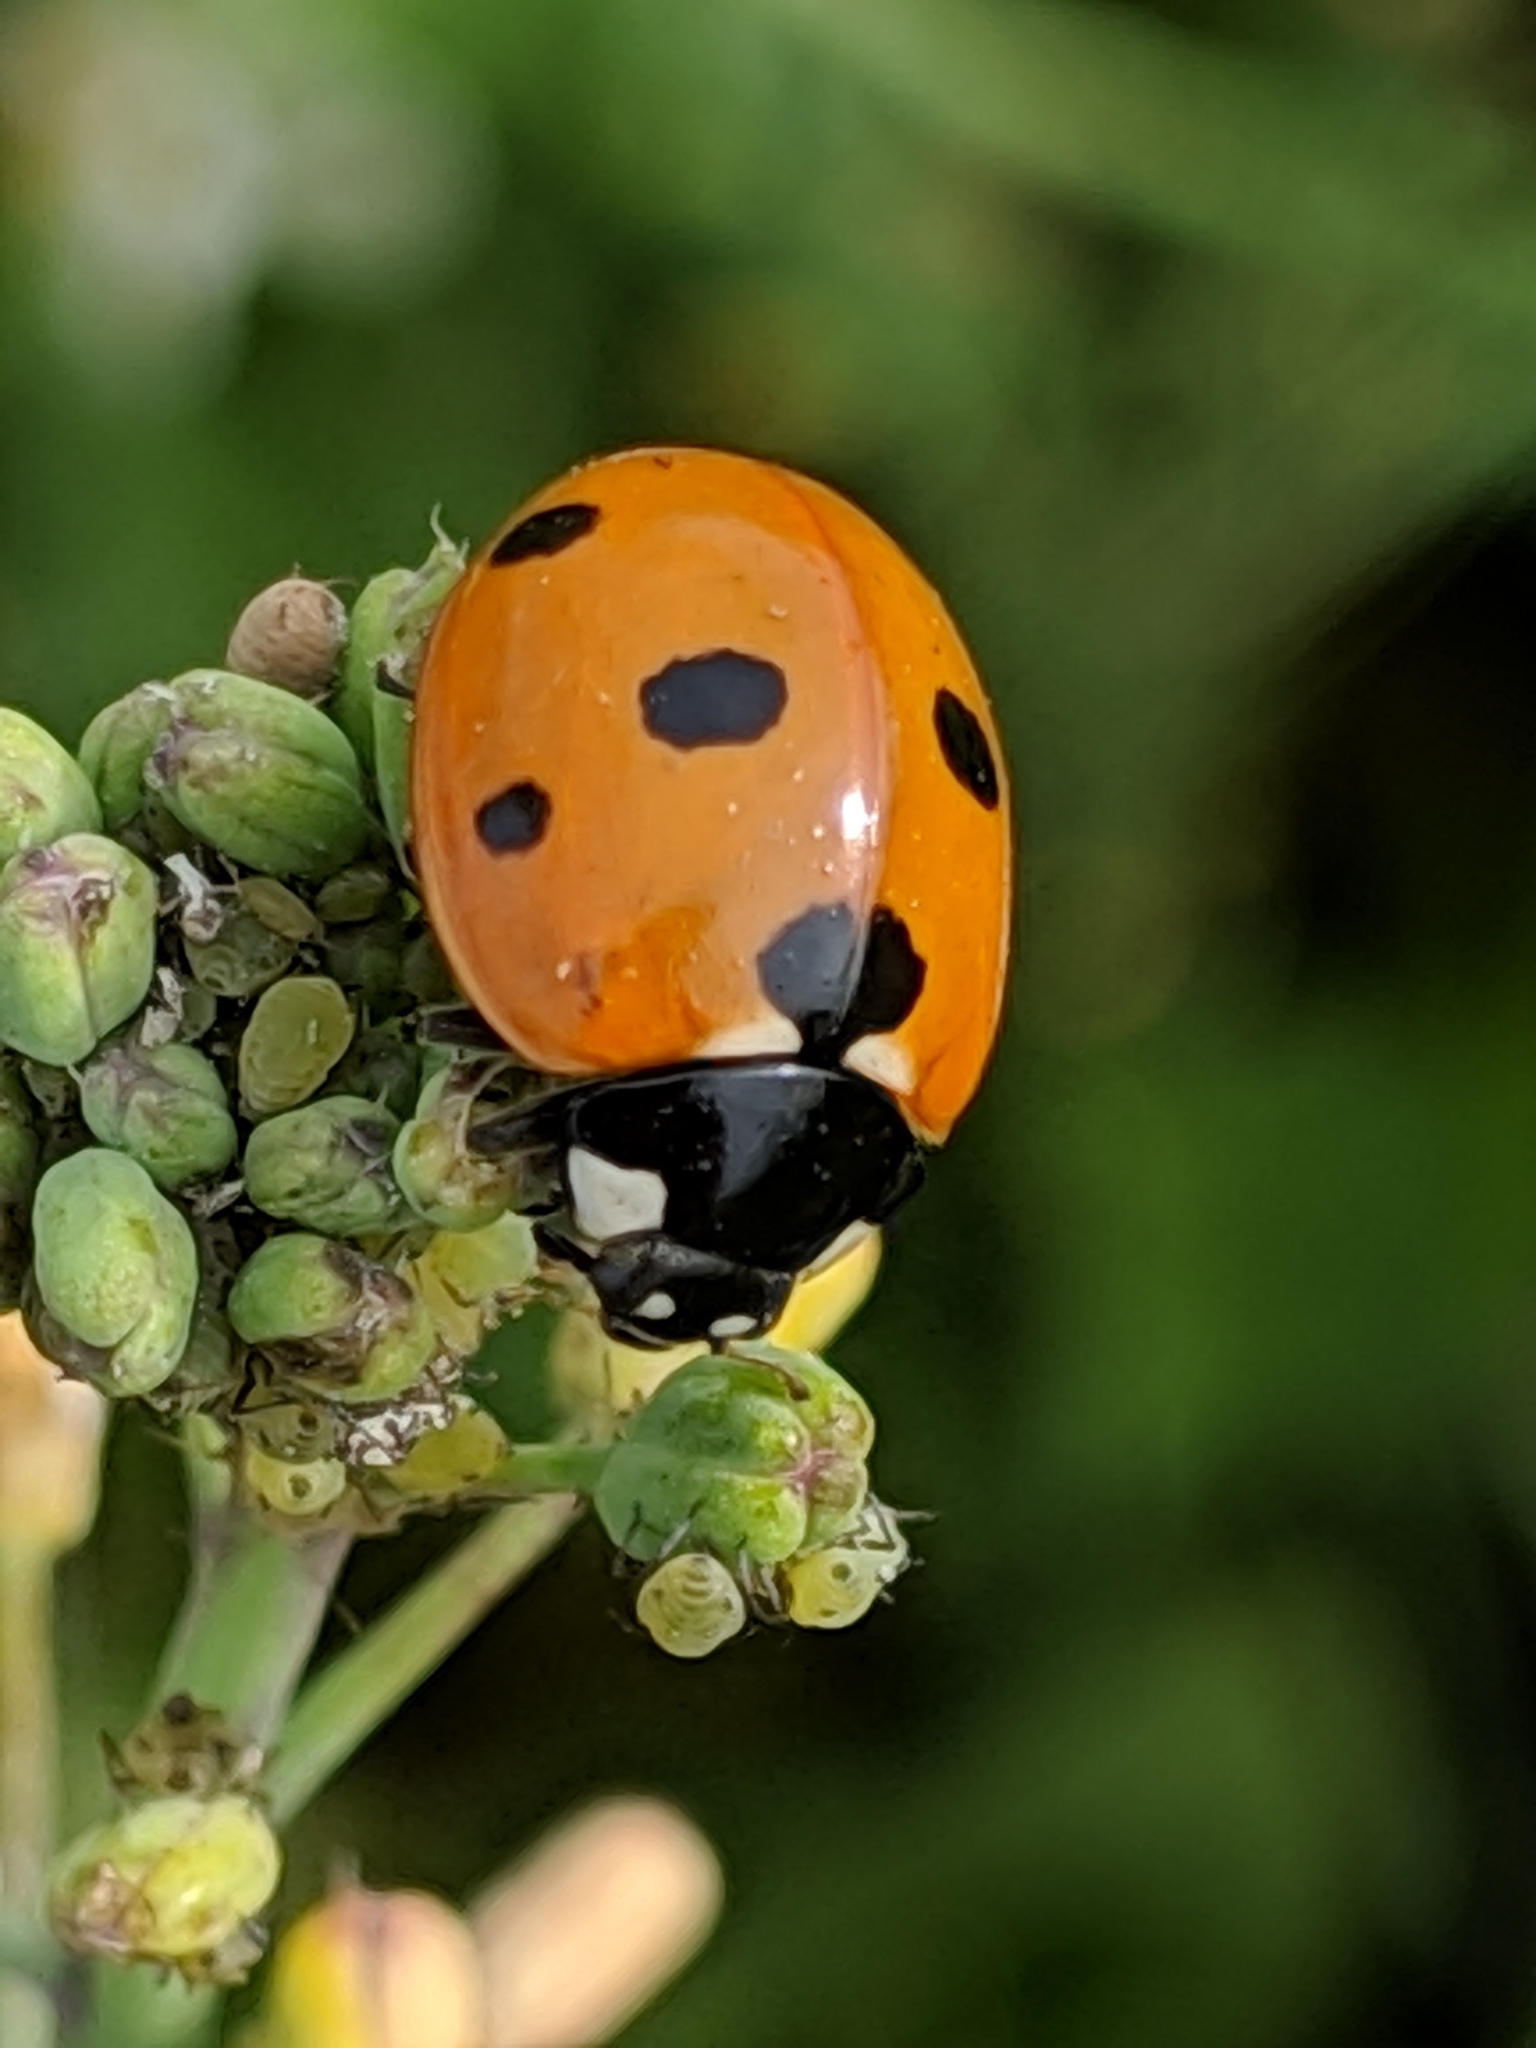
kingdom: Animalia
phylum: Arthropoda
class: Insecta
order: Coleoptera
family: Coccinellidae
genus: Coccinella
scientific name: Coccinella septempunctata
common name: Sevenspotted lady beetle
